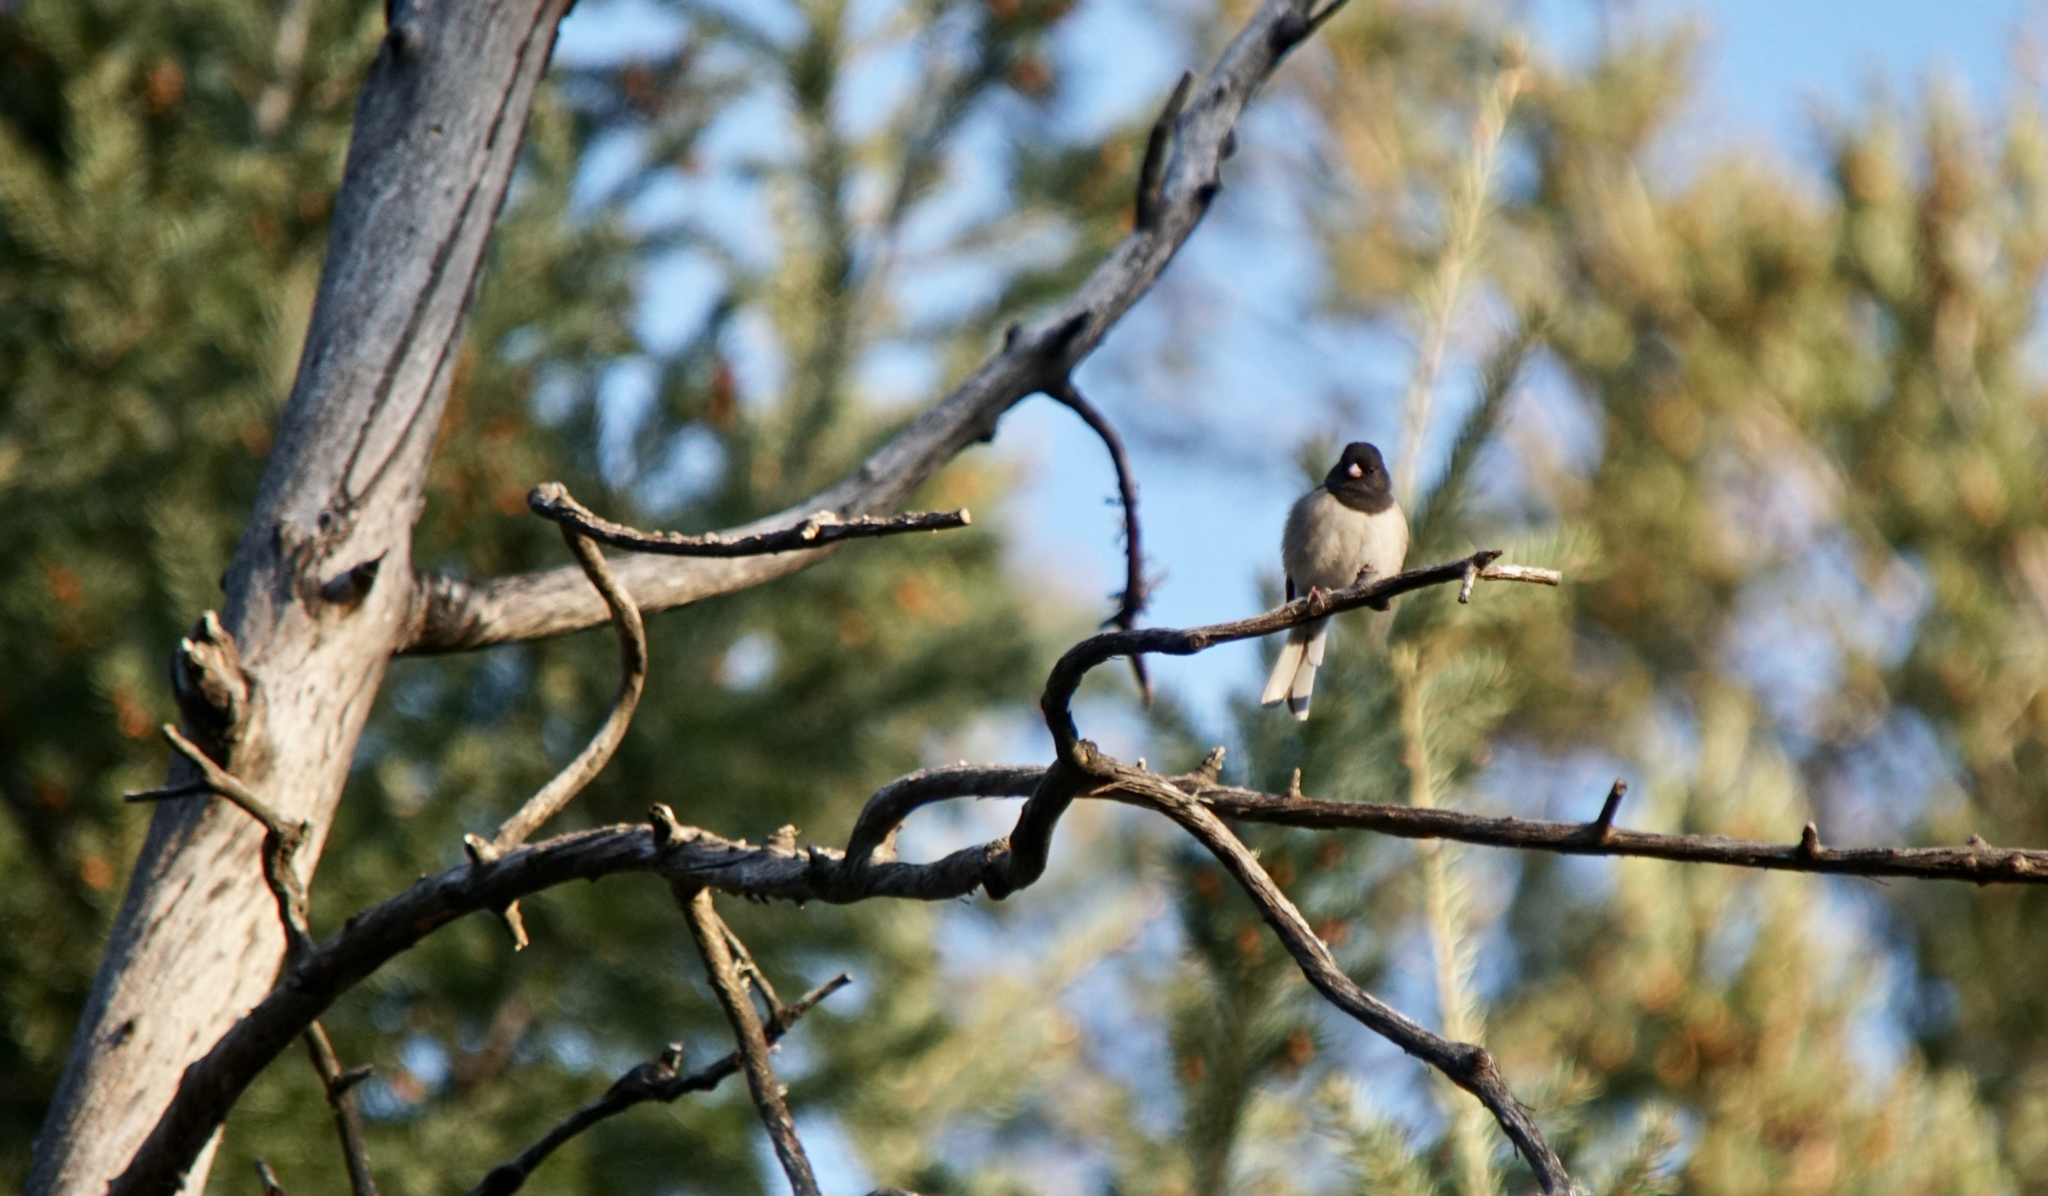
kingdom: Animalia
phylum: Chordata
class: Aves
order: Passeriformes
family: Passerellidae
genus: Junco
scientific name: Junco hyemalis
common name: Dark-eyed junco
